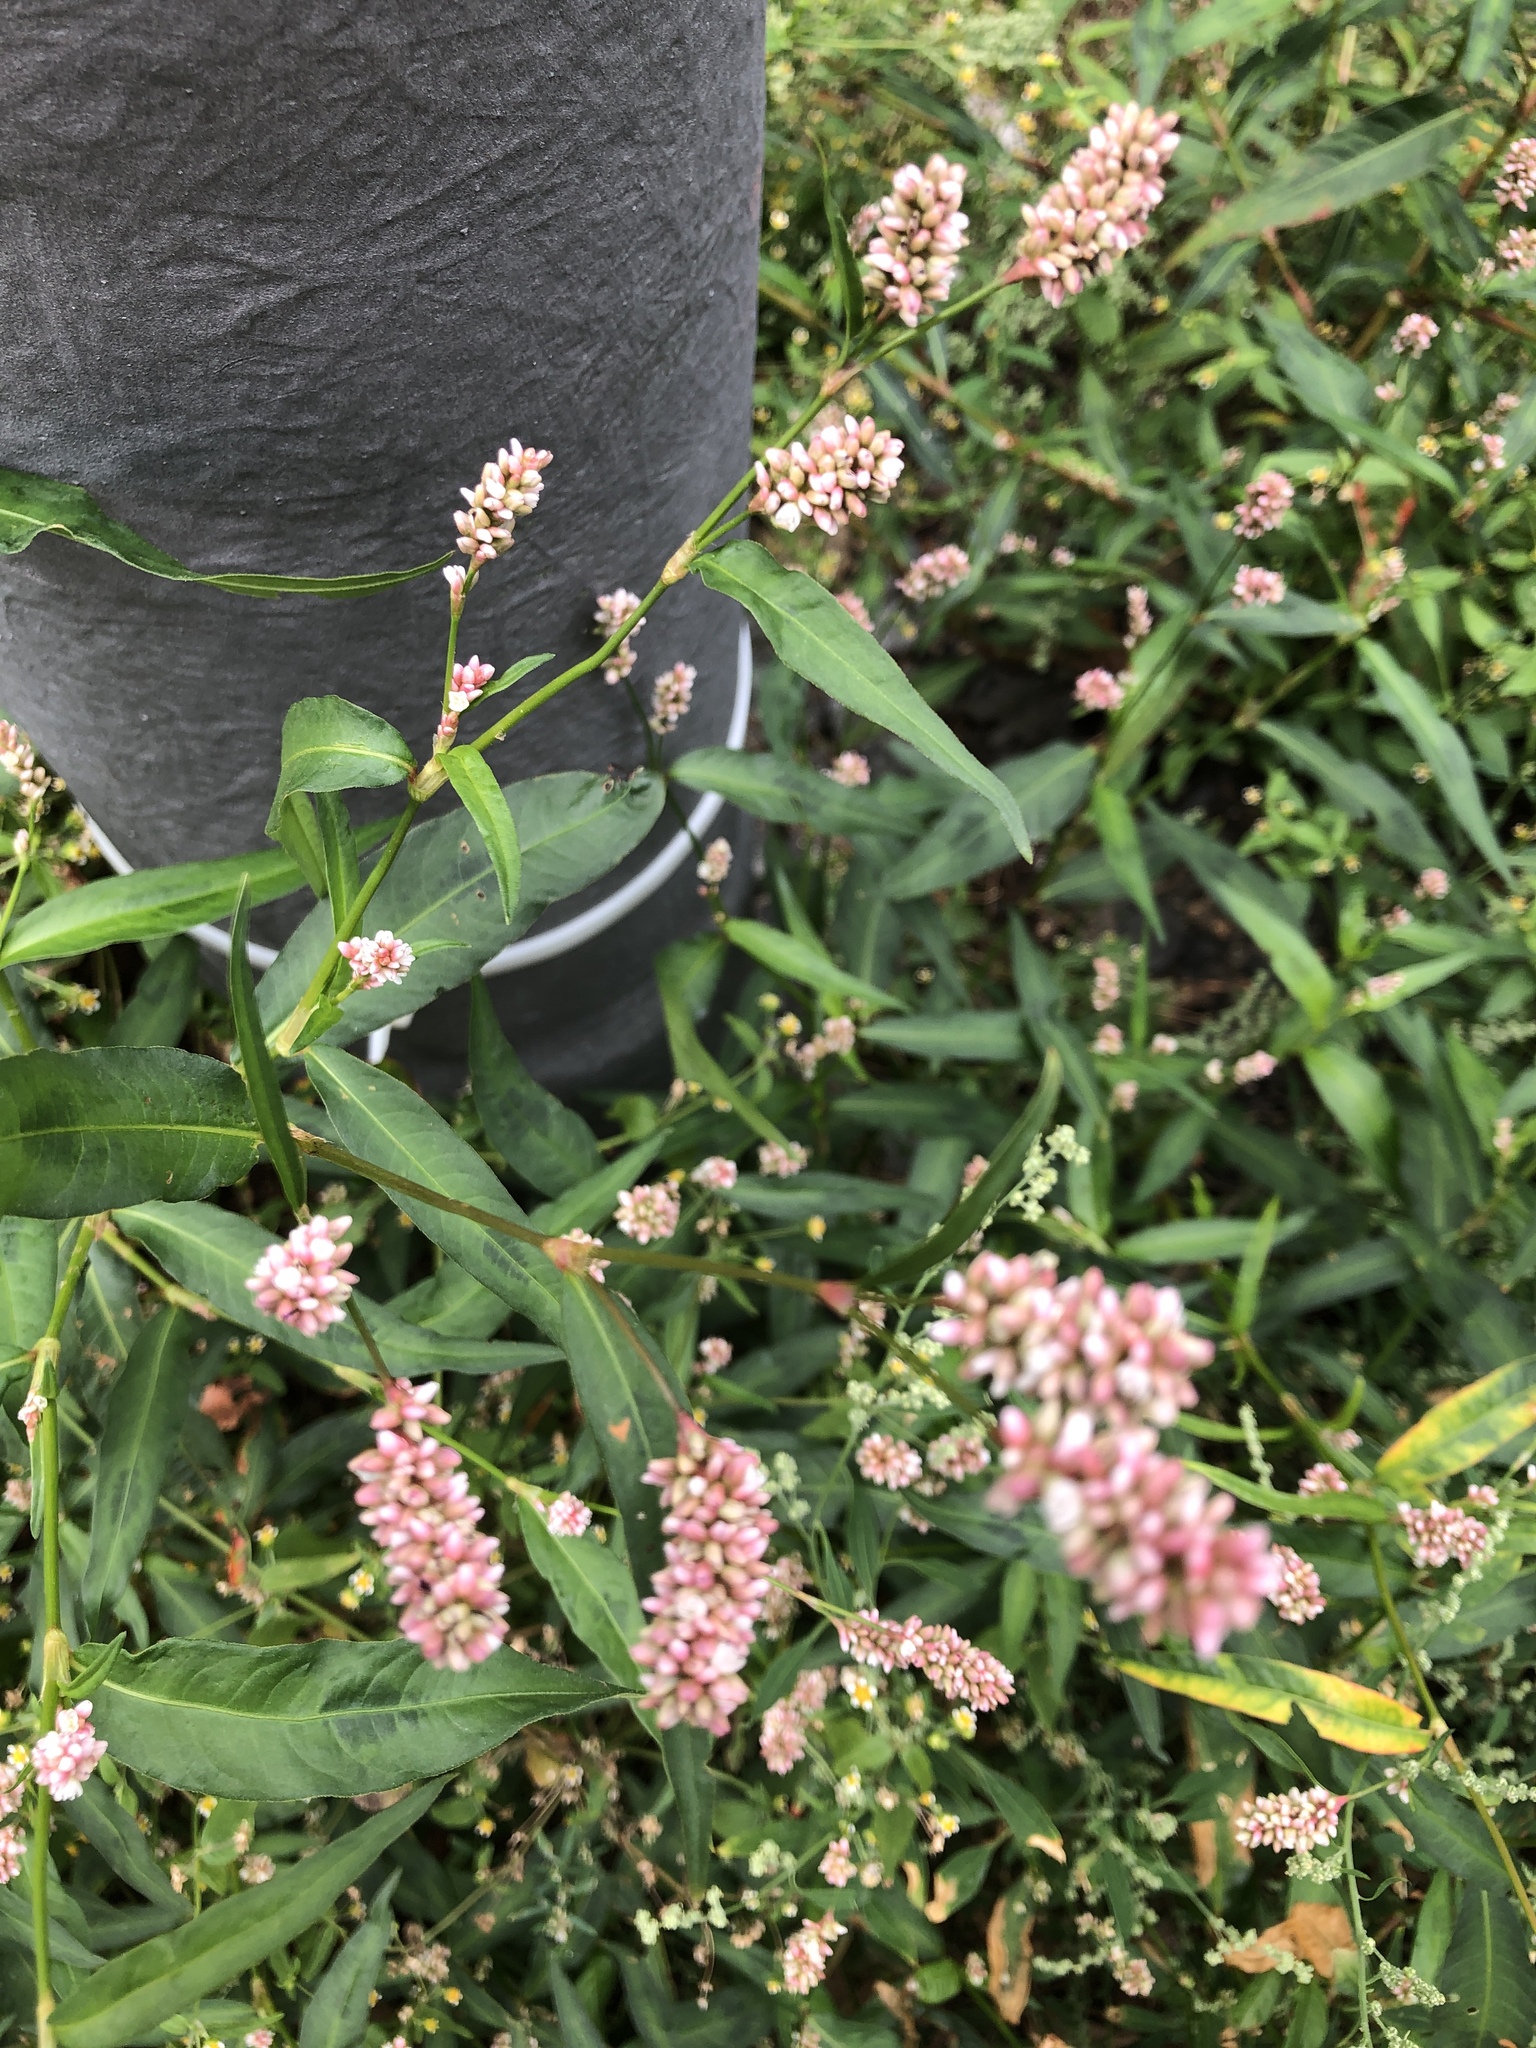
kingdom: Plantae
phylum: Tracheophyta
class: Magnoliopsida
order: Caryophyllales
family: Polygonaceae
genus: Persicaria
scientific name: Persicaria maculosa
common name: Redshank
